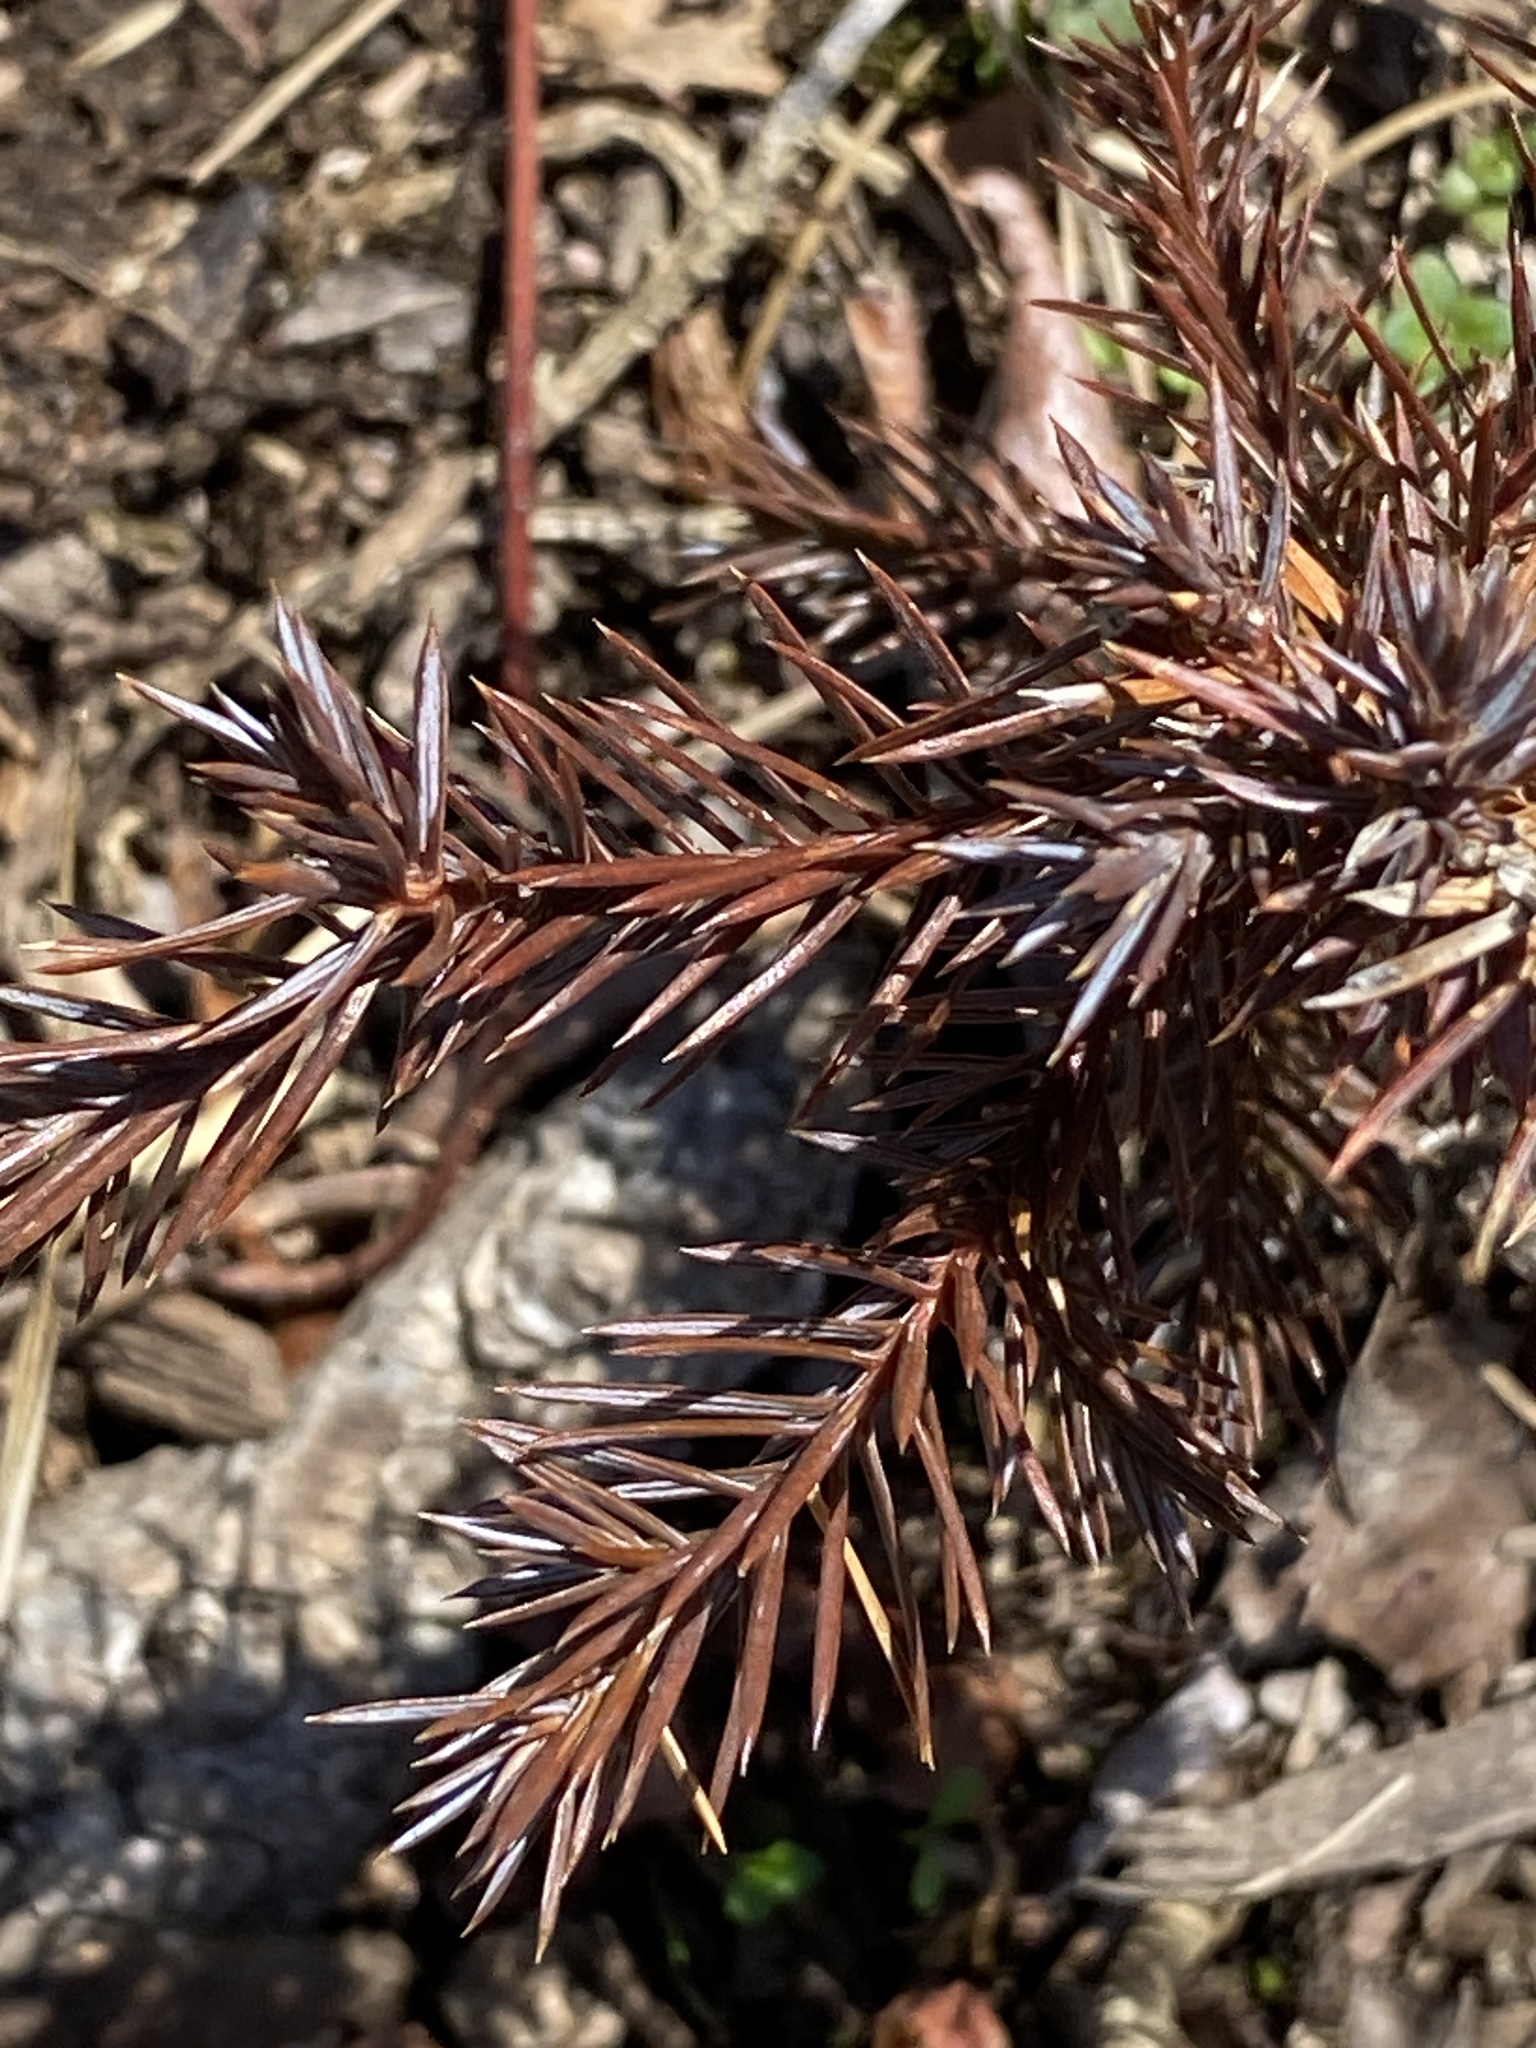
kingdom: Plantae
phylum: Tracheophyta
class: Pinopsida
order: Pinales
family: Cupressaceae
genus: Juniperus
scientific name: Juniperus virginiana
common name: Red juniper
